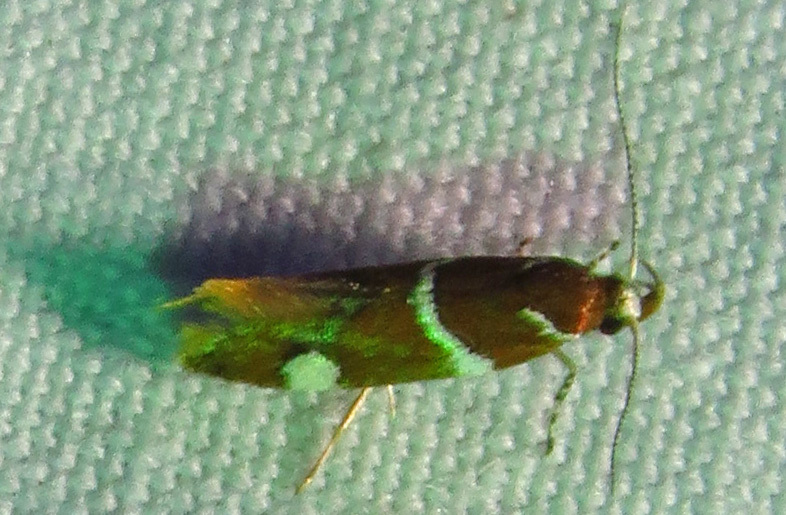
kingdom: Animalia
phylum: Arthropoda
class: Insecta
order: Lepidoptera
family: Oecophoridae
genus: Promalactis
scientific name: Promalactis suzukiella
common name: Moth
